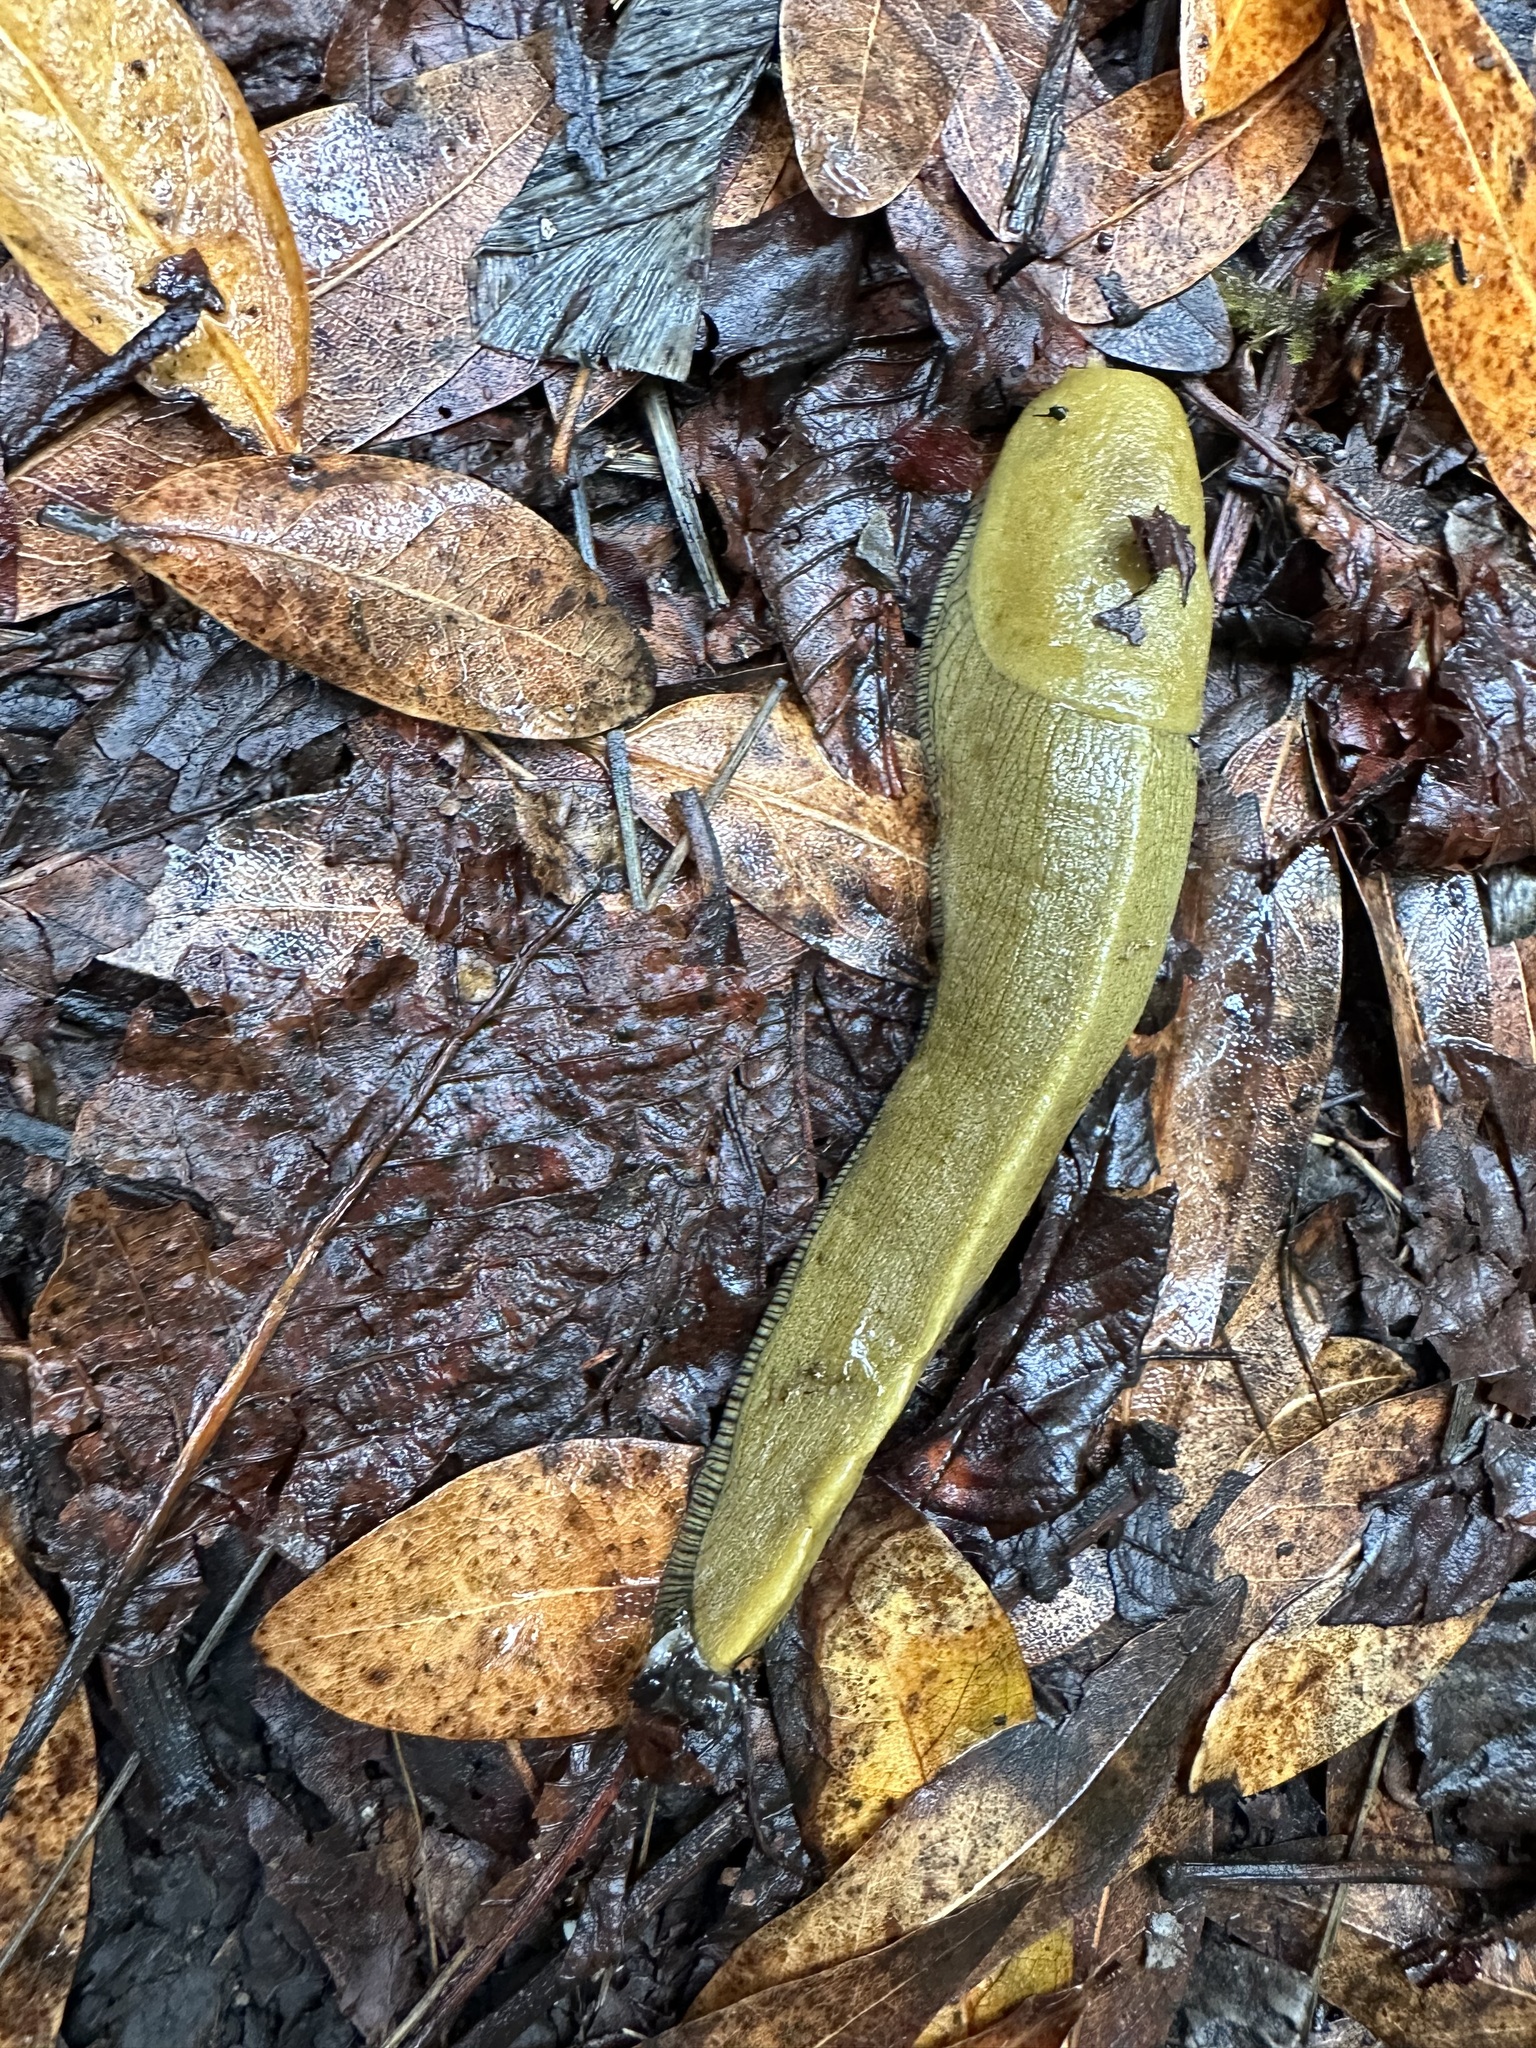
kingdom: Animalia
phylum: Mollusca
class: Gastropoda
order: Stylommatophora
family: Ariolimacidae
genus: Ariolimax
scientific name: Ariolimax buttoni
